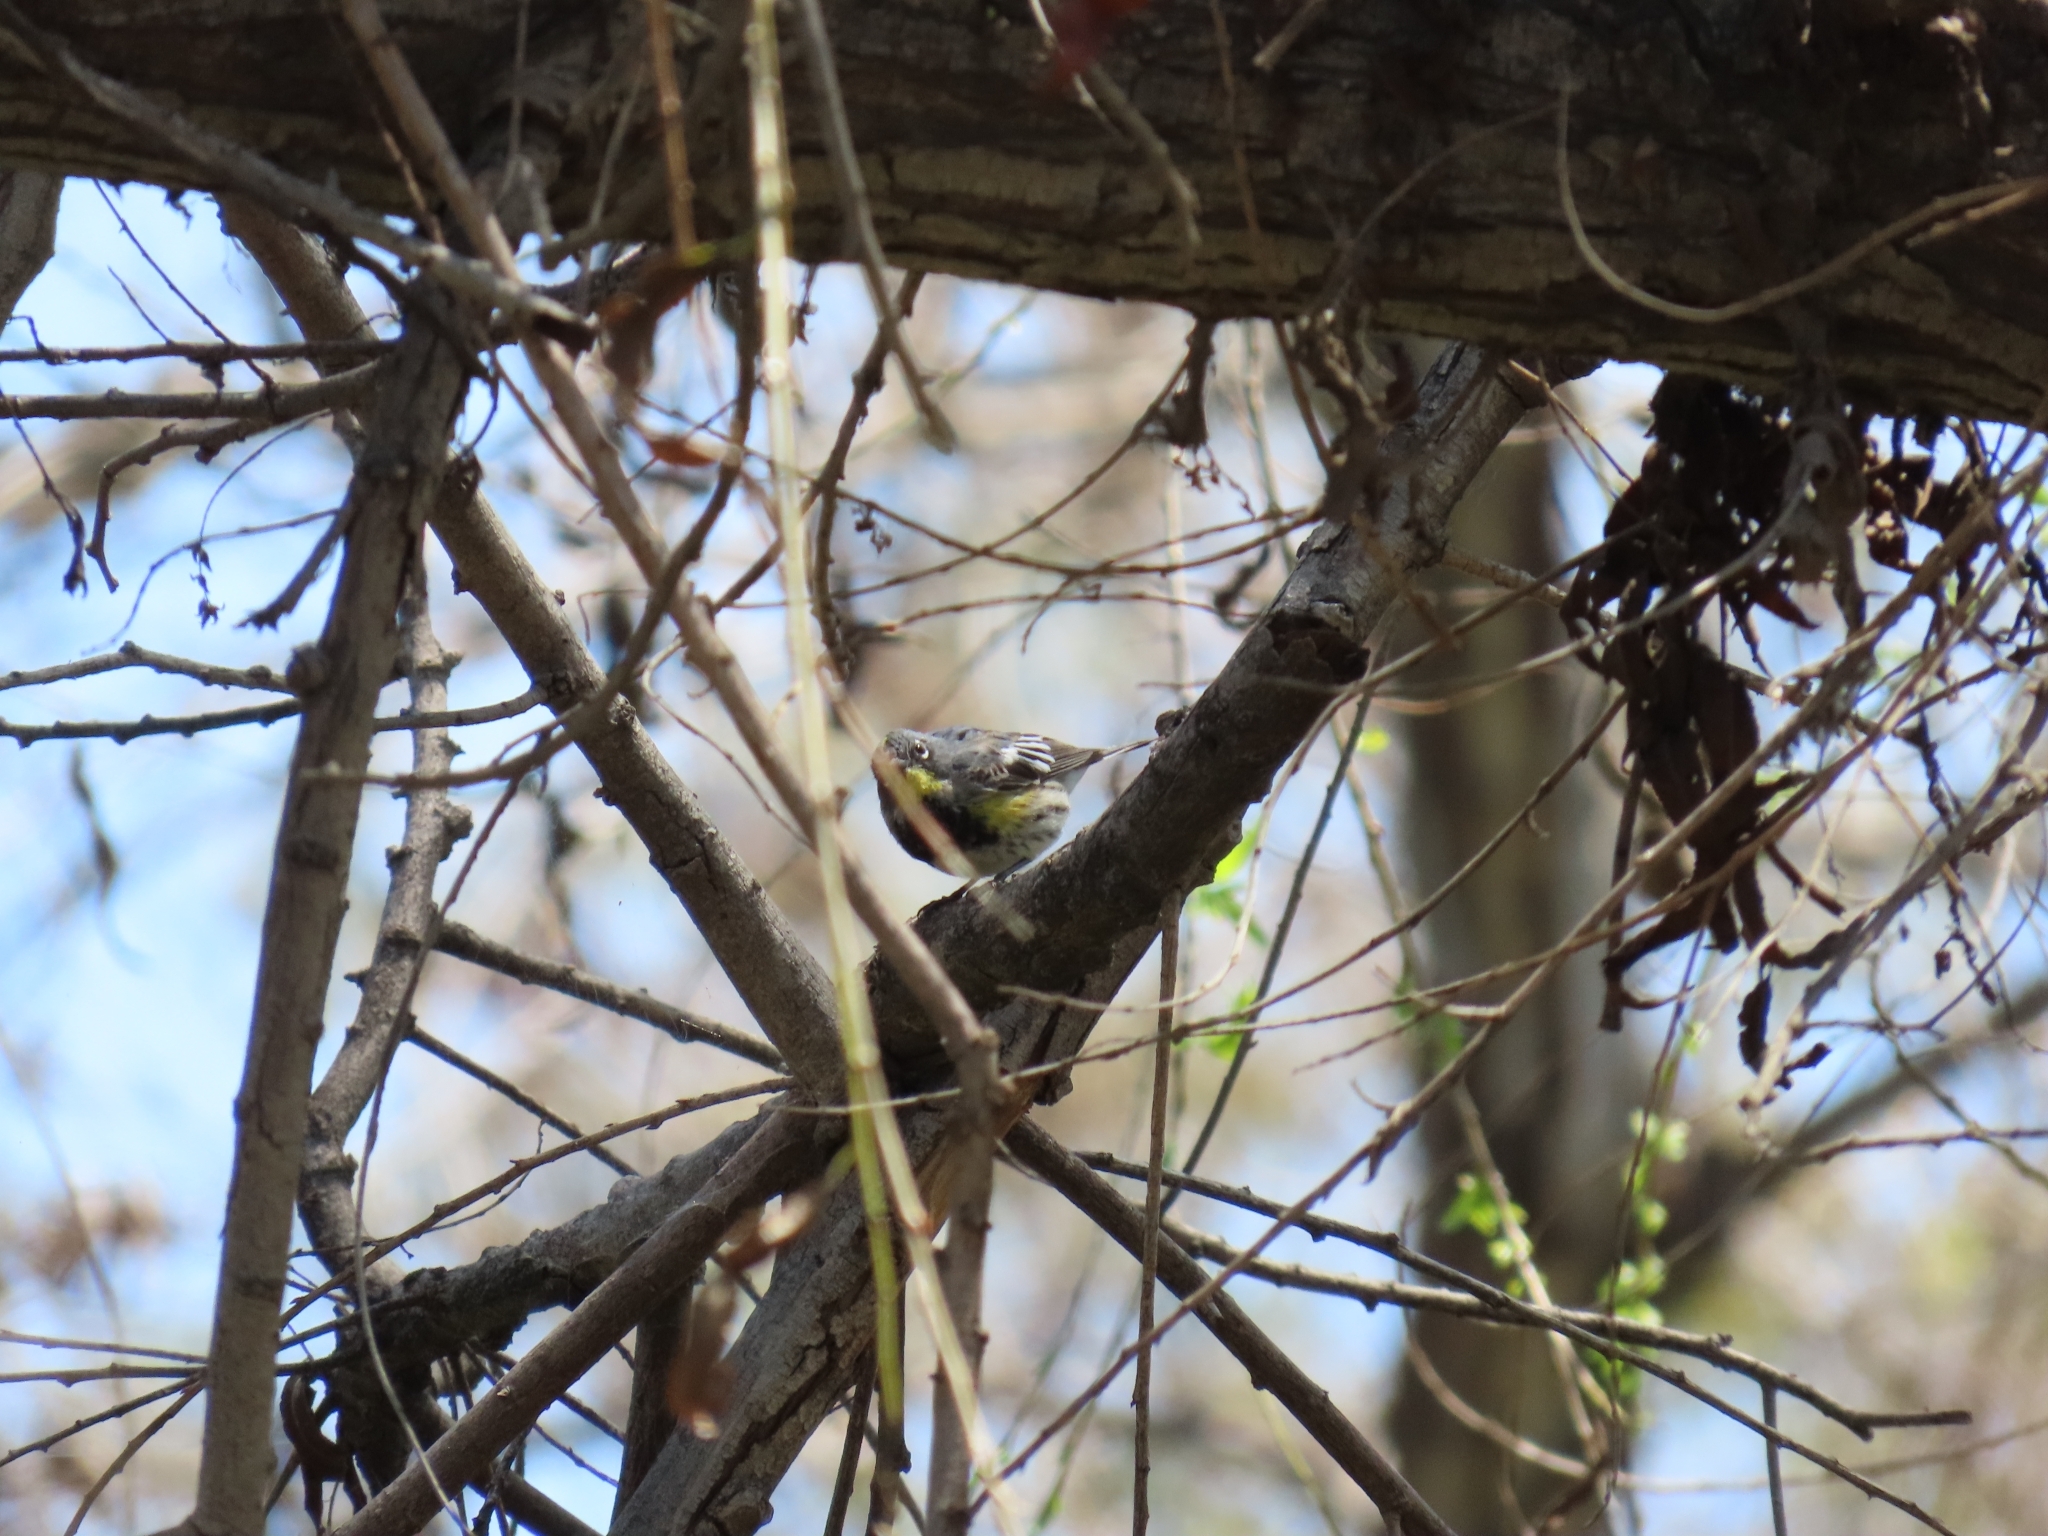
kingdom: Animalia
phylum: Chordata
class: Aves
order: Passeriformes
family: Parulidae
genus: Setophaga
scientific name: Setophaga coronata
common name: Myrtle warbler
